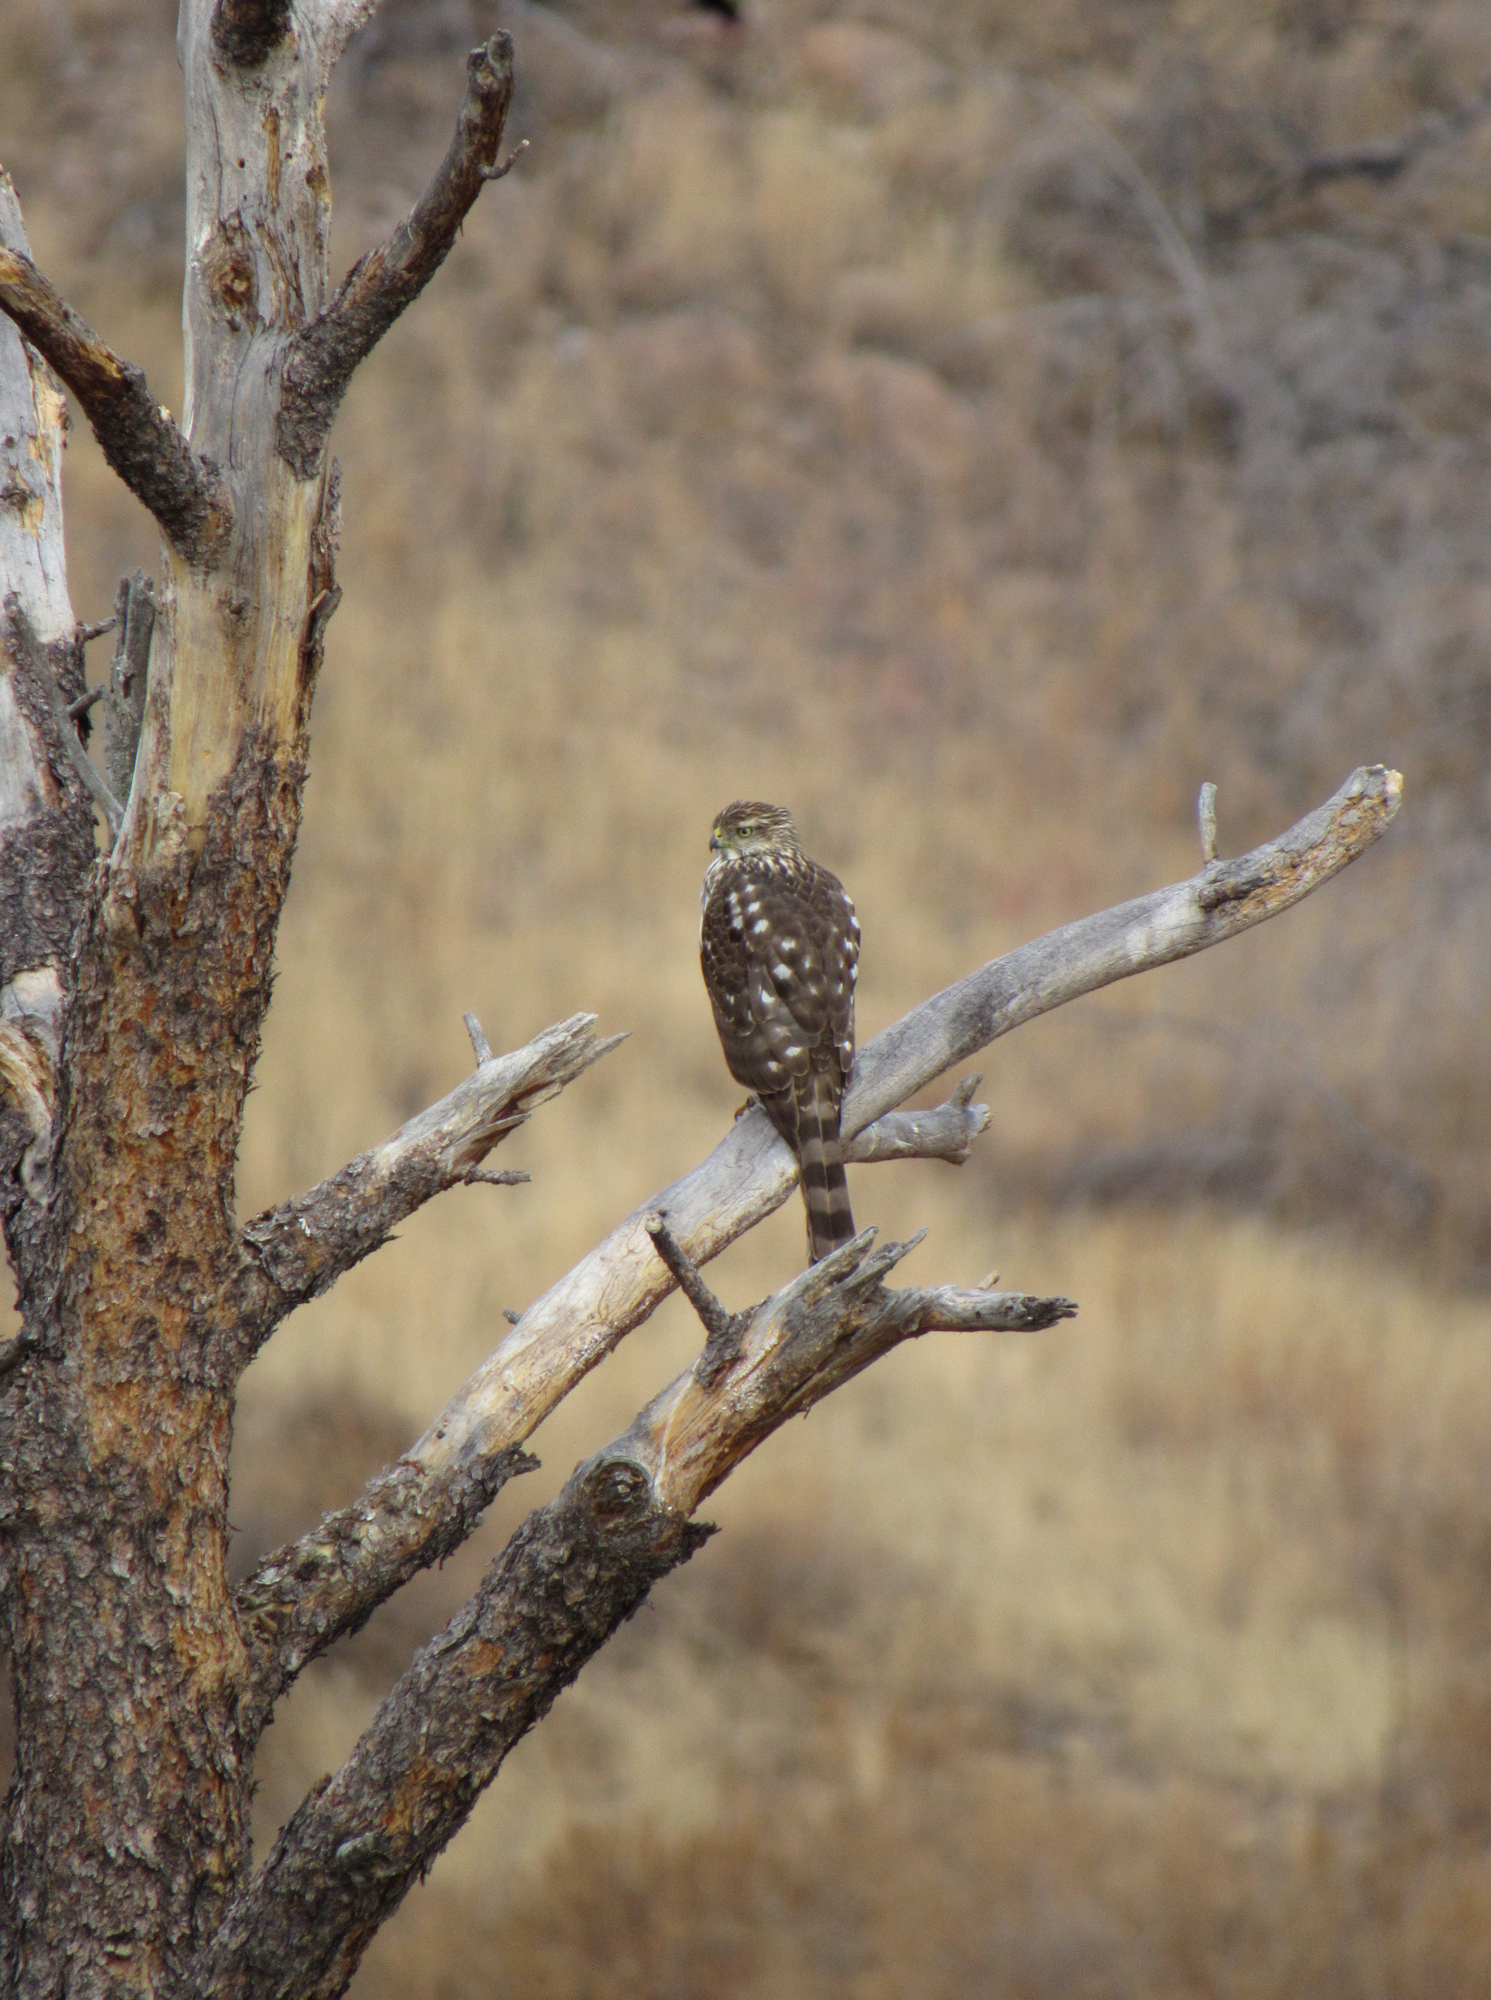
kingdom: Animalia
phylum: Chordata
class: Aves
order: Accipitriformes
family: Accipitridae
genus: Accipiter
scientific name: Accipiter cooperii
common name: Cooper's hawk
